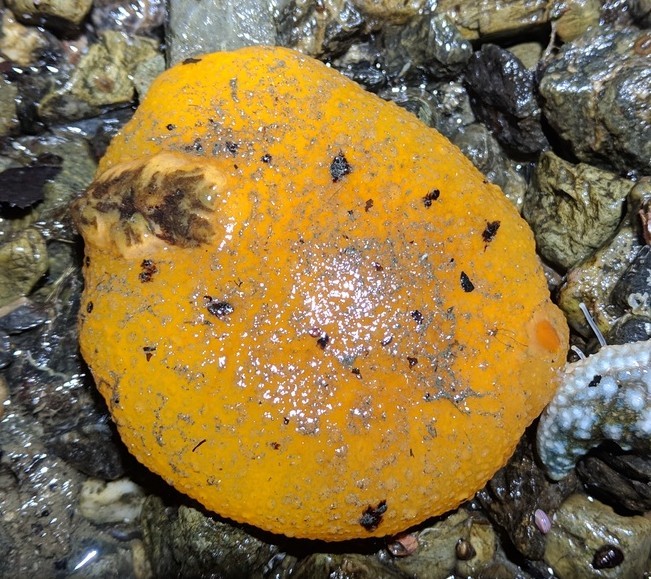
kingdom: Animalia
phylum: Mollusca
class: Gastropoda
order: Nudibranchia
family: Dorididae
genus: Doris
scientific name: Doris montereyensis
